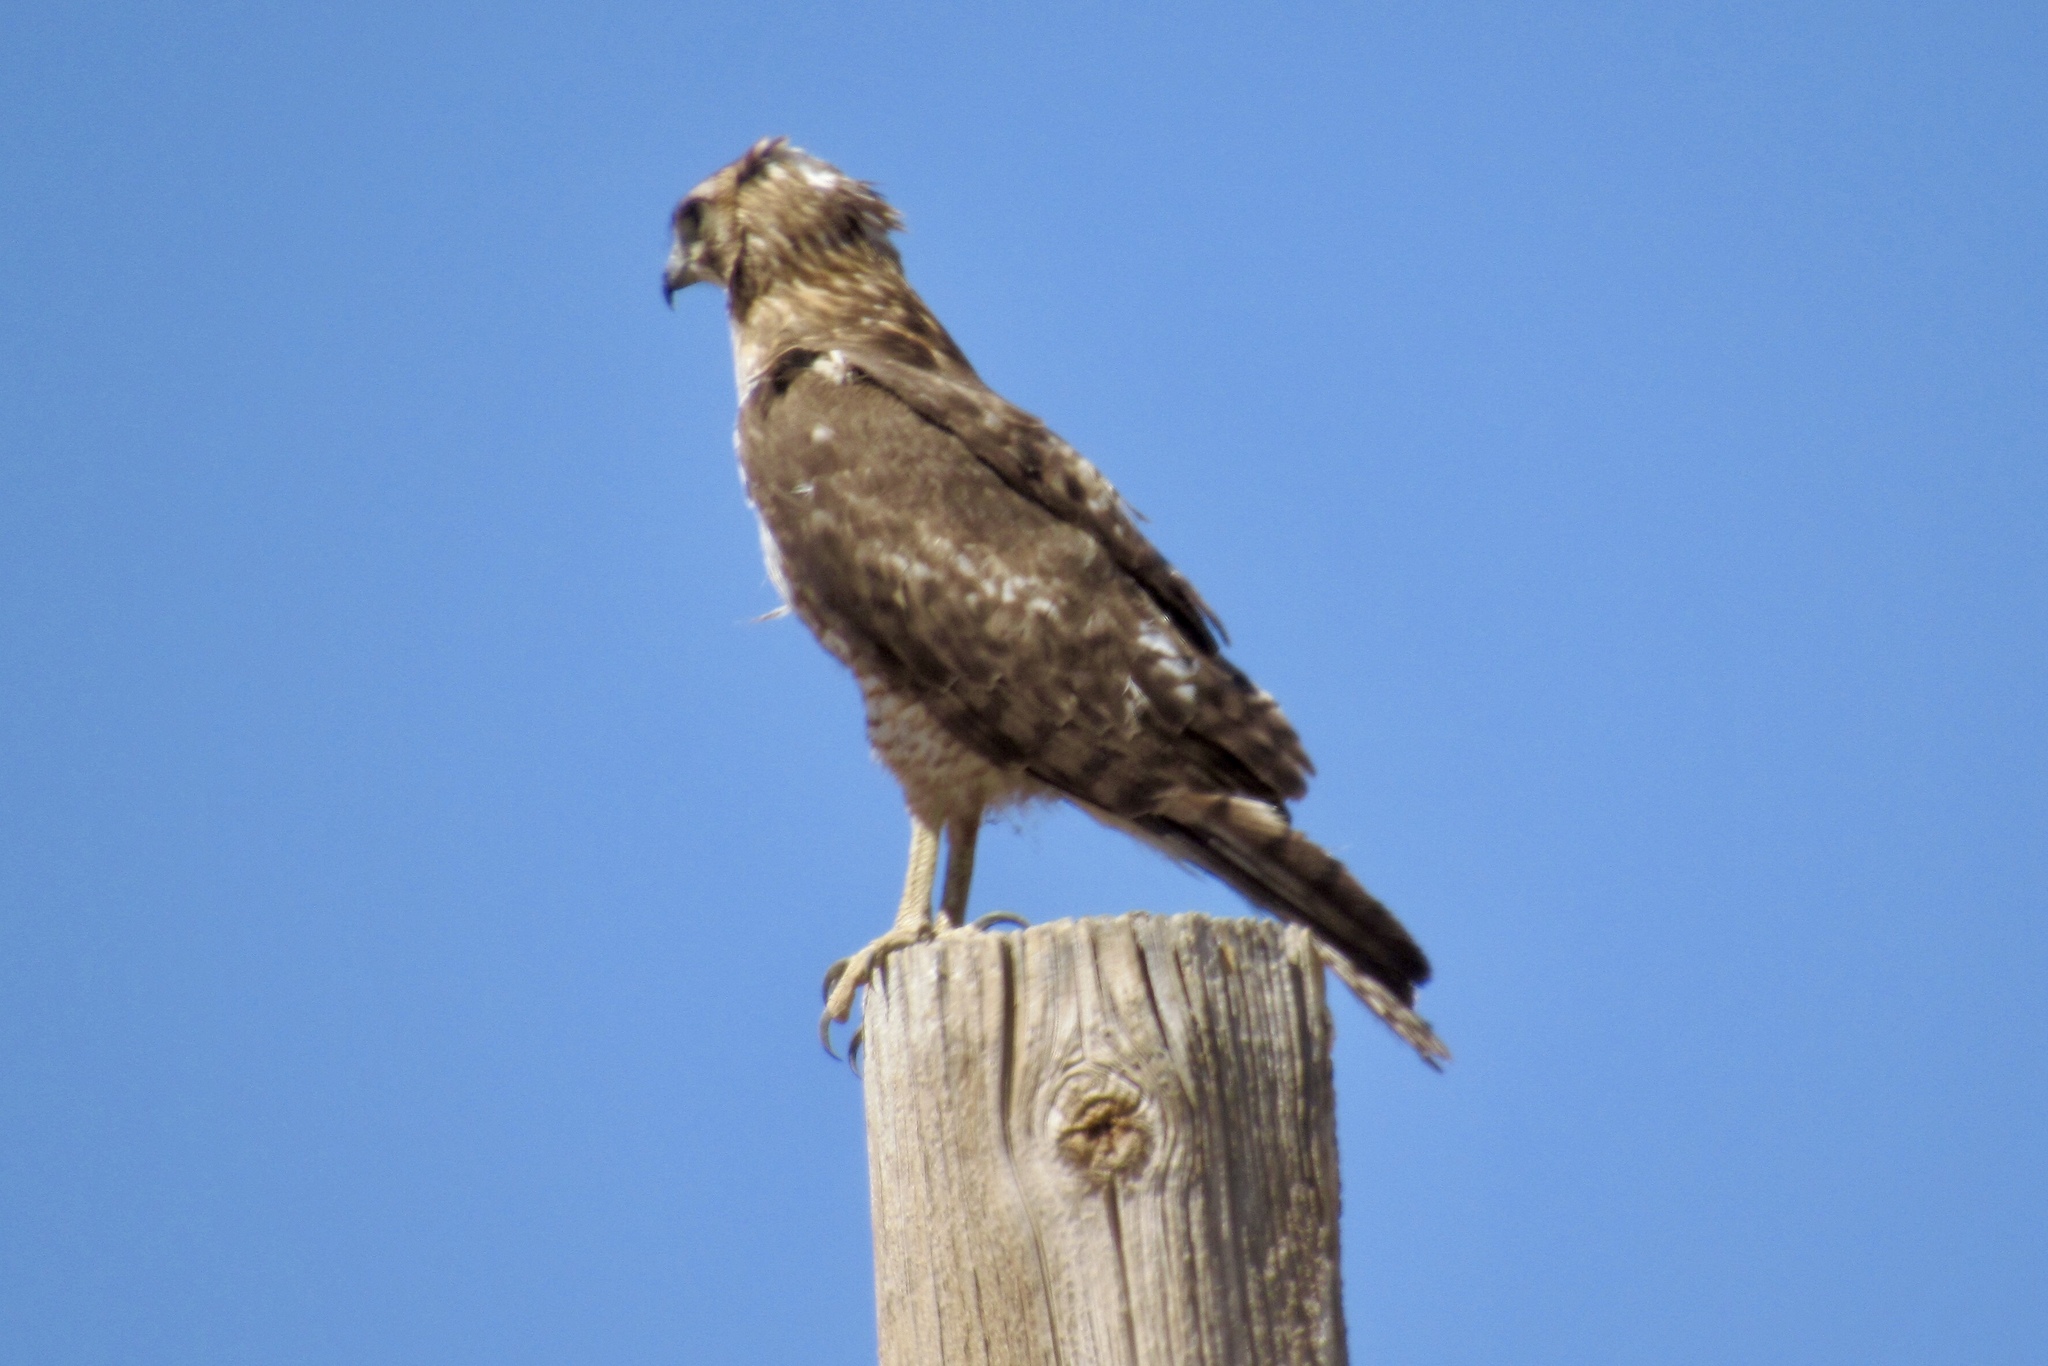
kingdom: Animalia
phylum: Chordata
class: Aves
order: Accipitriformes
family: Accipitridae
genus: Buteo
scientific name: Buteo jamaicensis
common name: Red-tailed hawk
